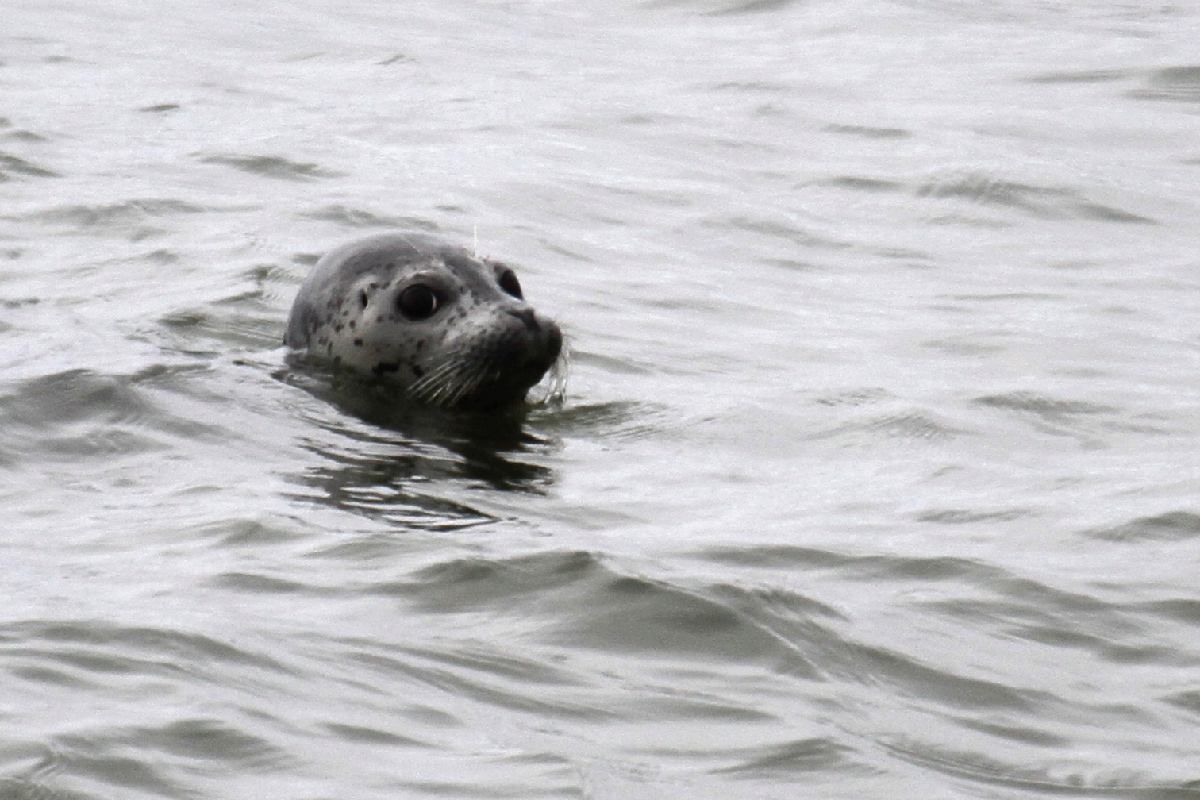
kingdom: Animalia
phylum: Chordata
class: Mammalia
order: Carnivora
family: Phocidae
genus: Phoca
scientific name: Phoca vitulina
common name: Harbor seal
